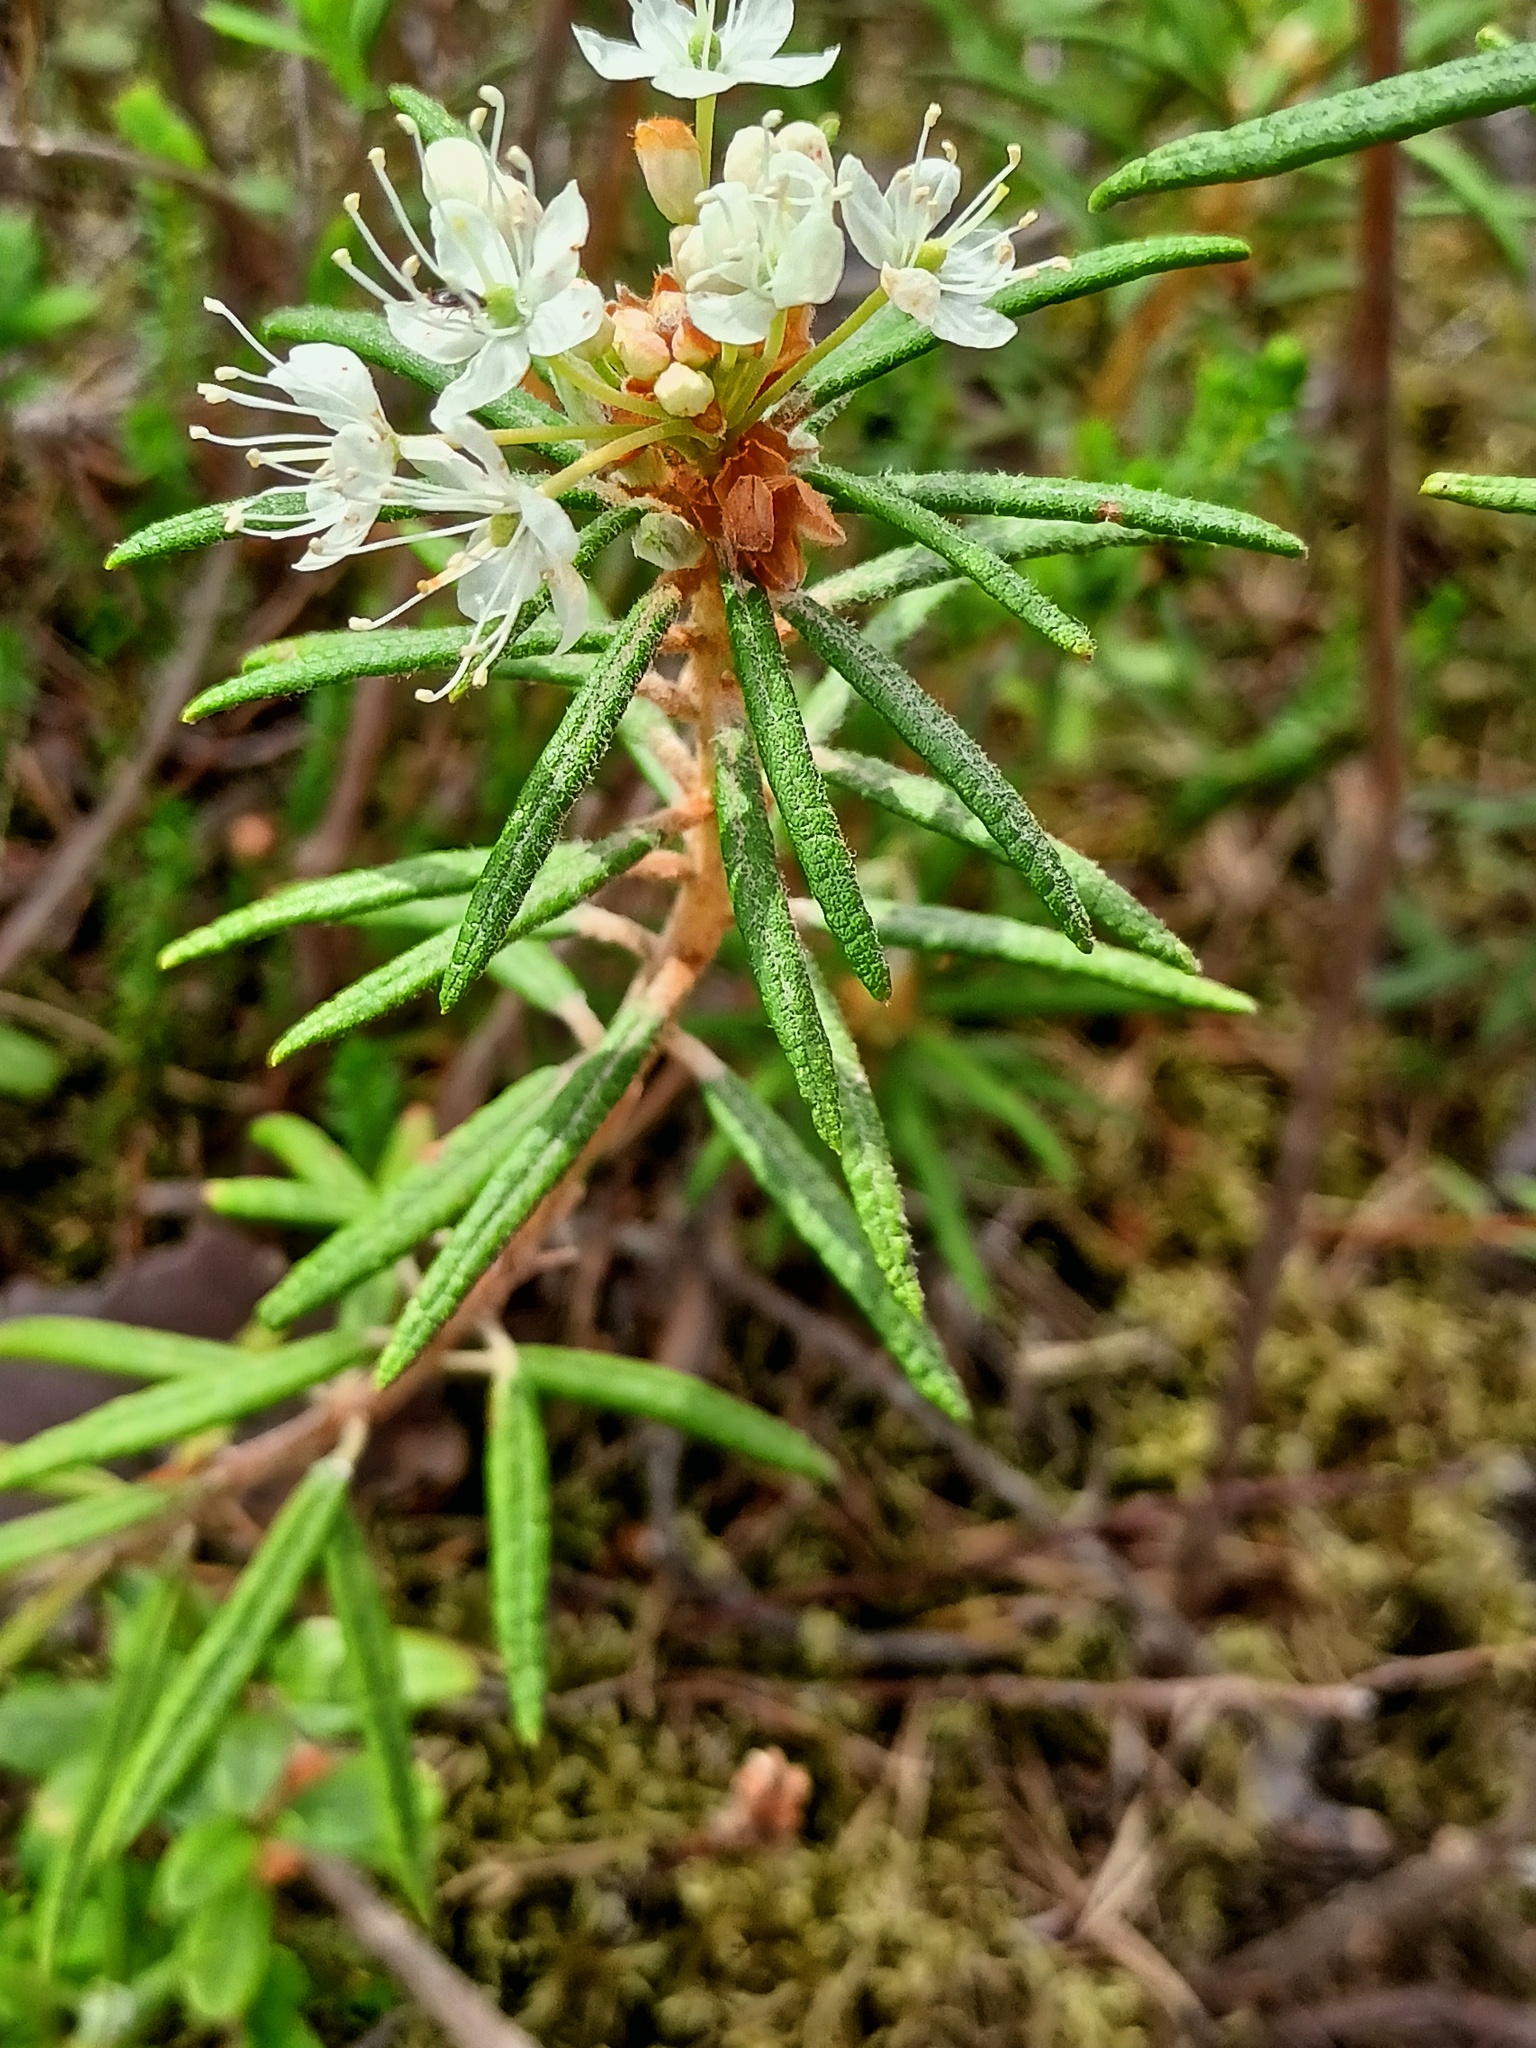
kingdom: Plantae
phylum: Tracheophyta
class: Magnoliopsida
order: Ericales
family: Ericaceae
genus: Rhododendron
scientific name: Rhododendron tomentosum
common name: Marsh labrador tea
